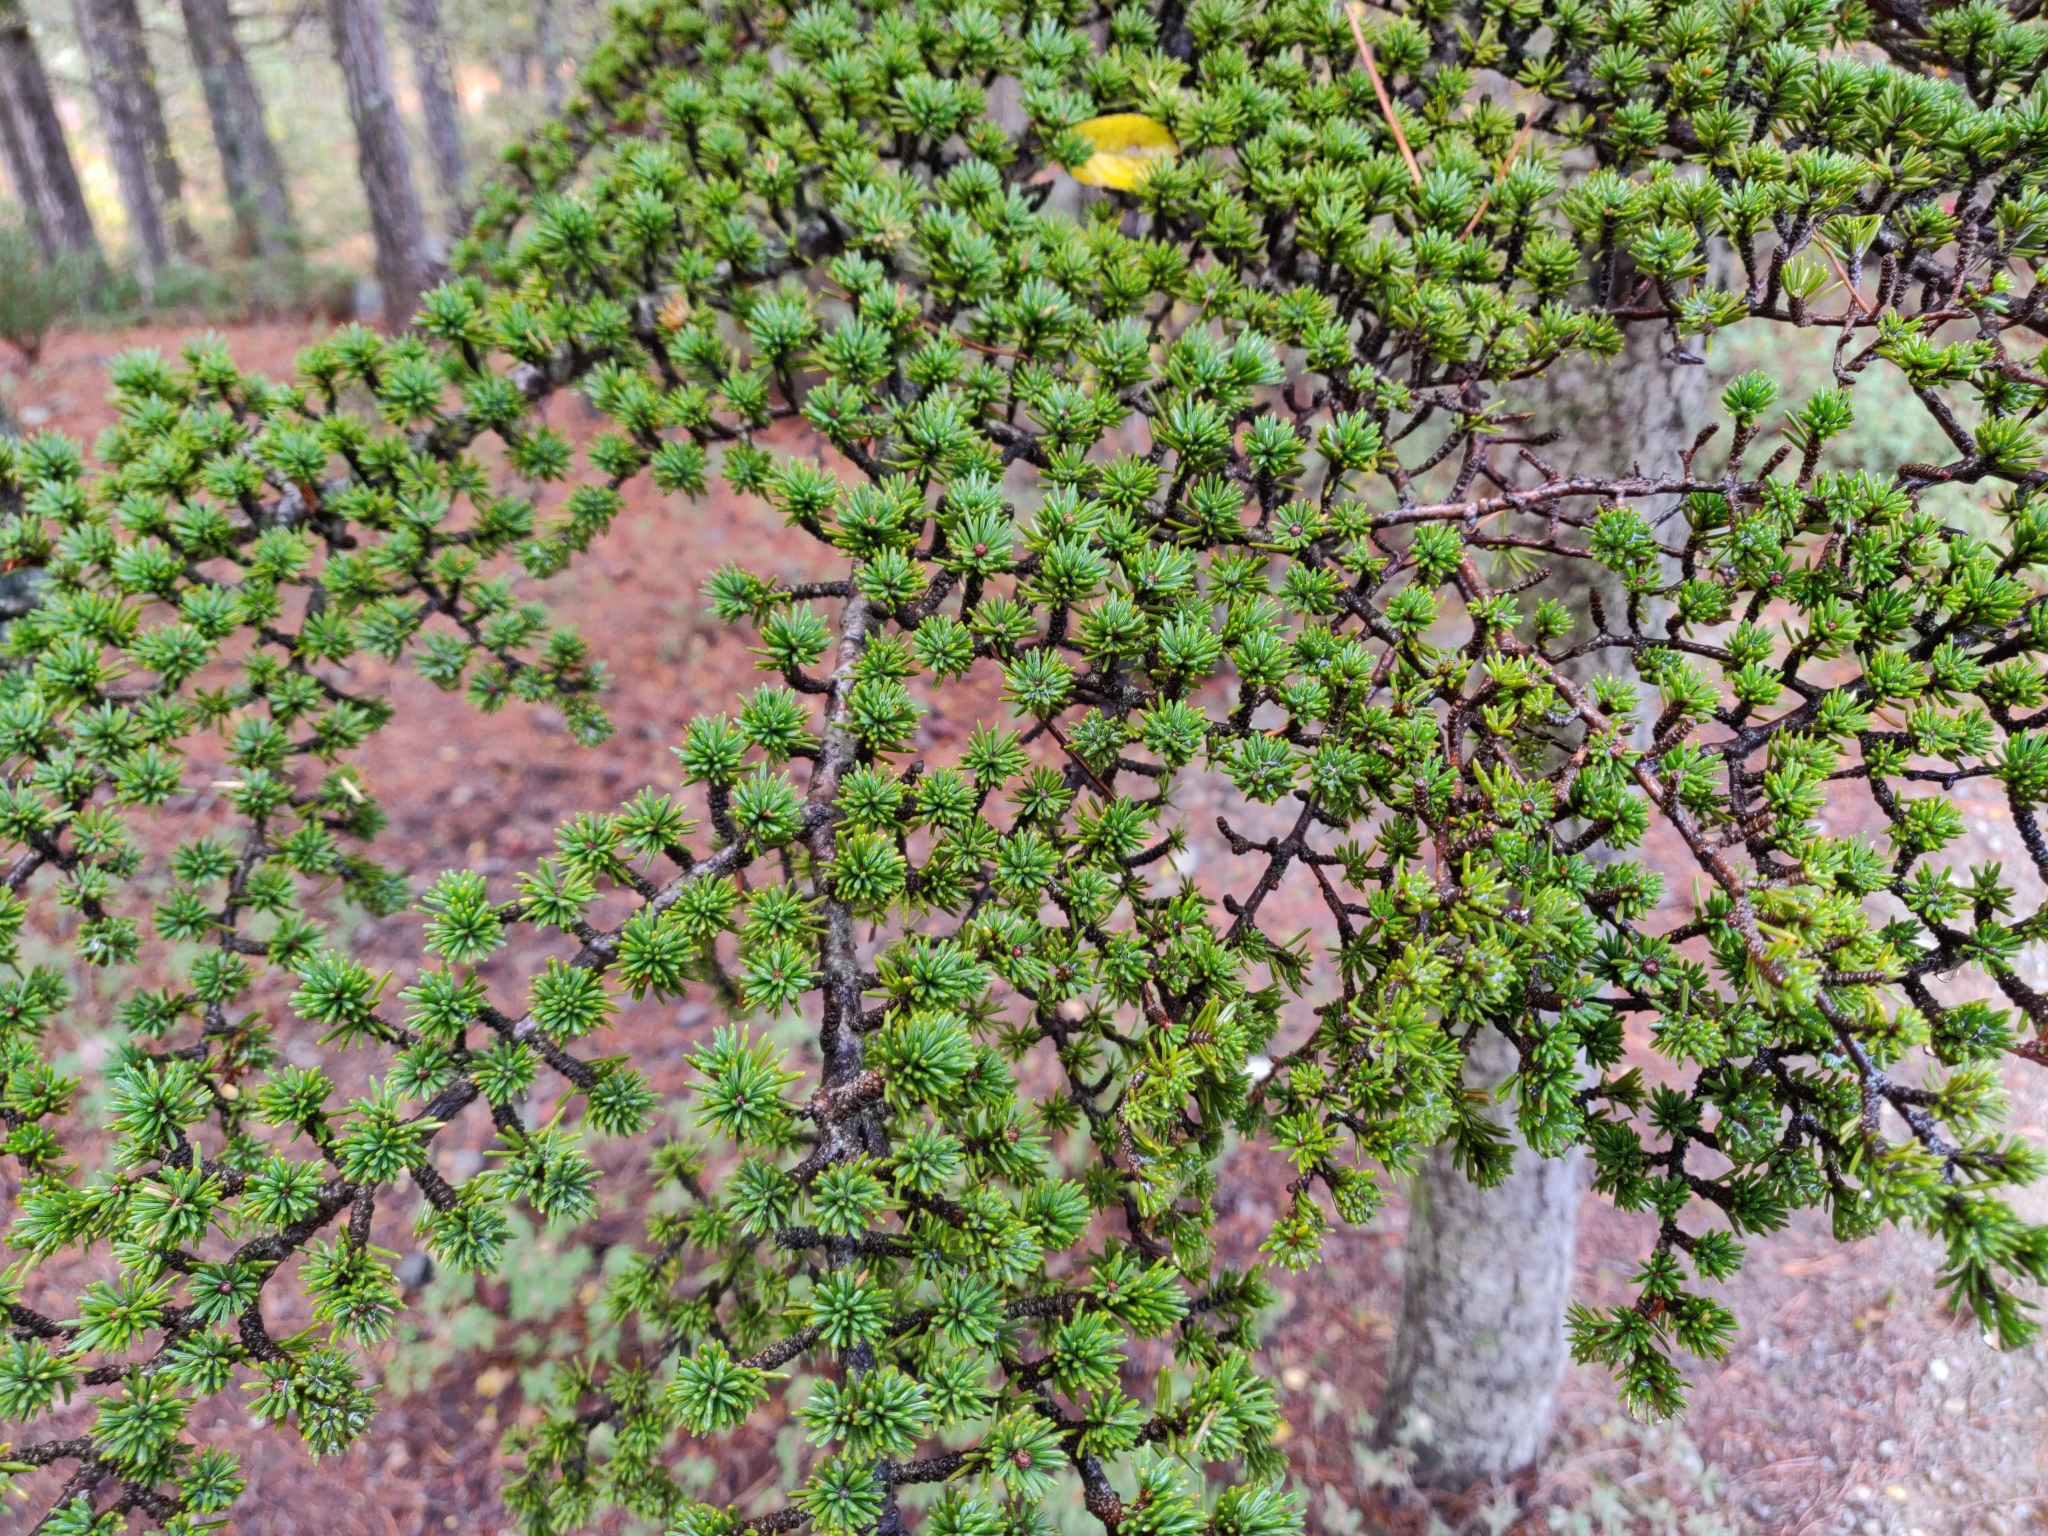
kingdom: Plantae
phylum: Tracheophyta
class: Pinopsida
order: Pinales
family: Pinaceae
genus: Cedrus
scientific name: Cedrus brevifolia
